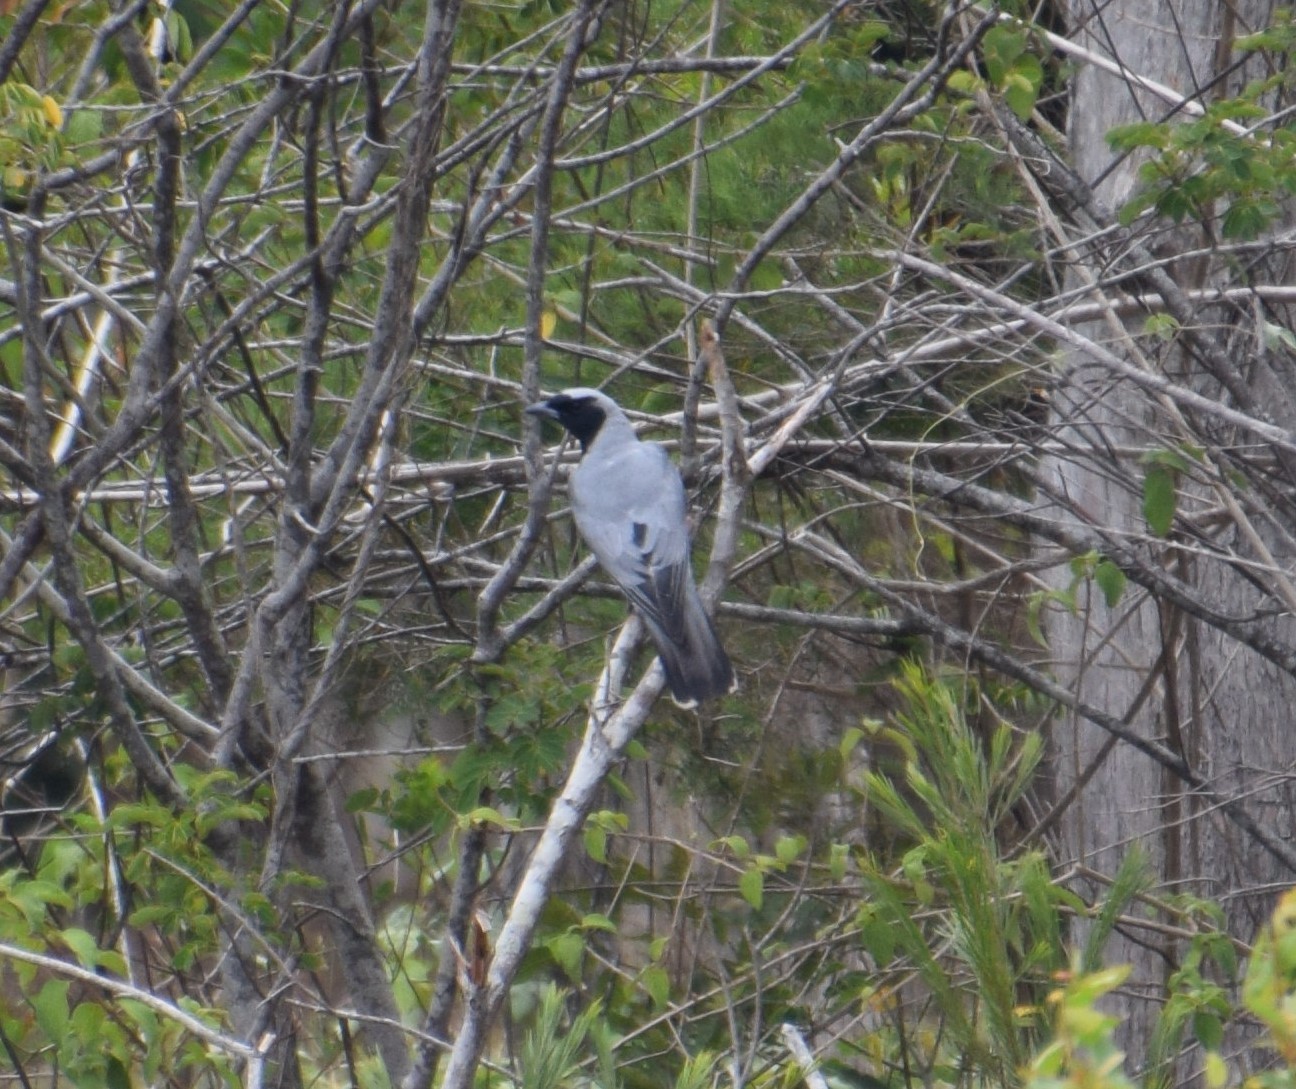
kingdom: Animalia
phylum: Chordata
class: Aves
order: Passeriformes
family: Campephagidae
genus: Coracina
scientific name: Coracina novaehollandiae
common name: Black-faced cuckooshrike
